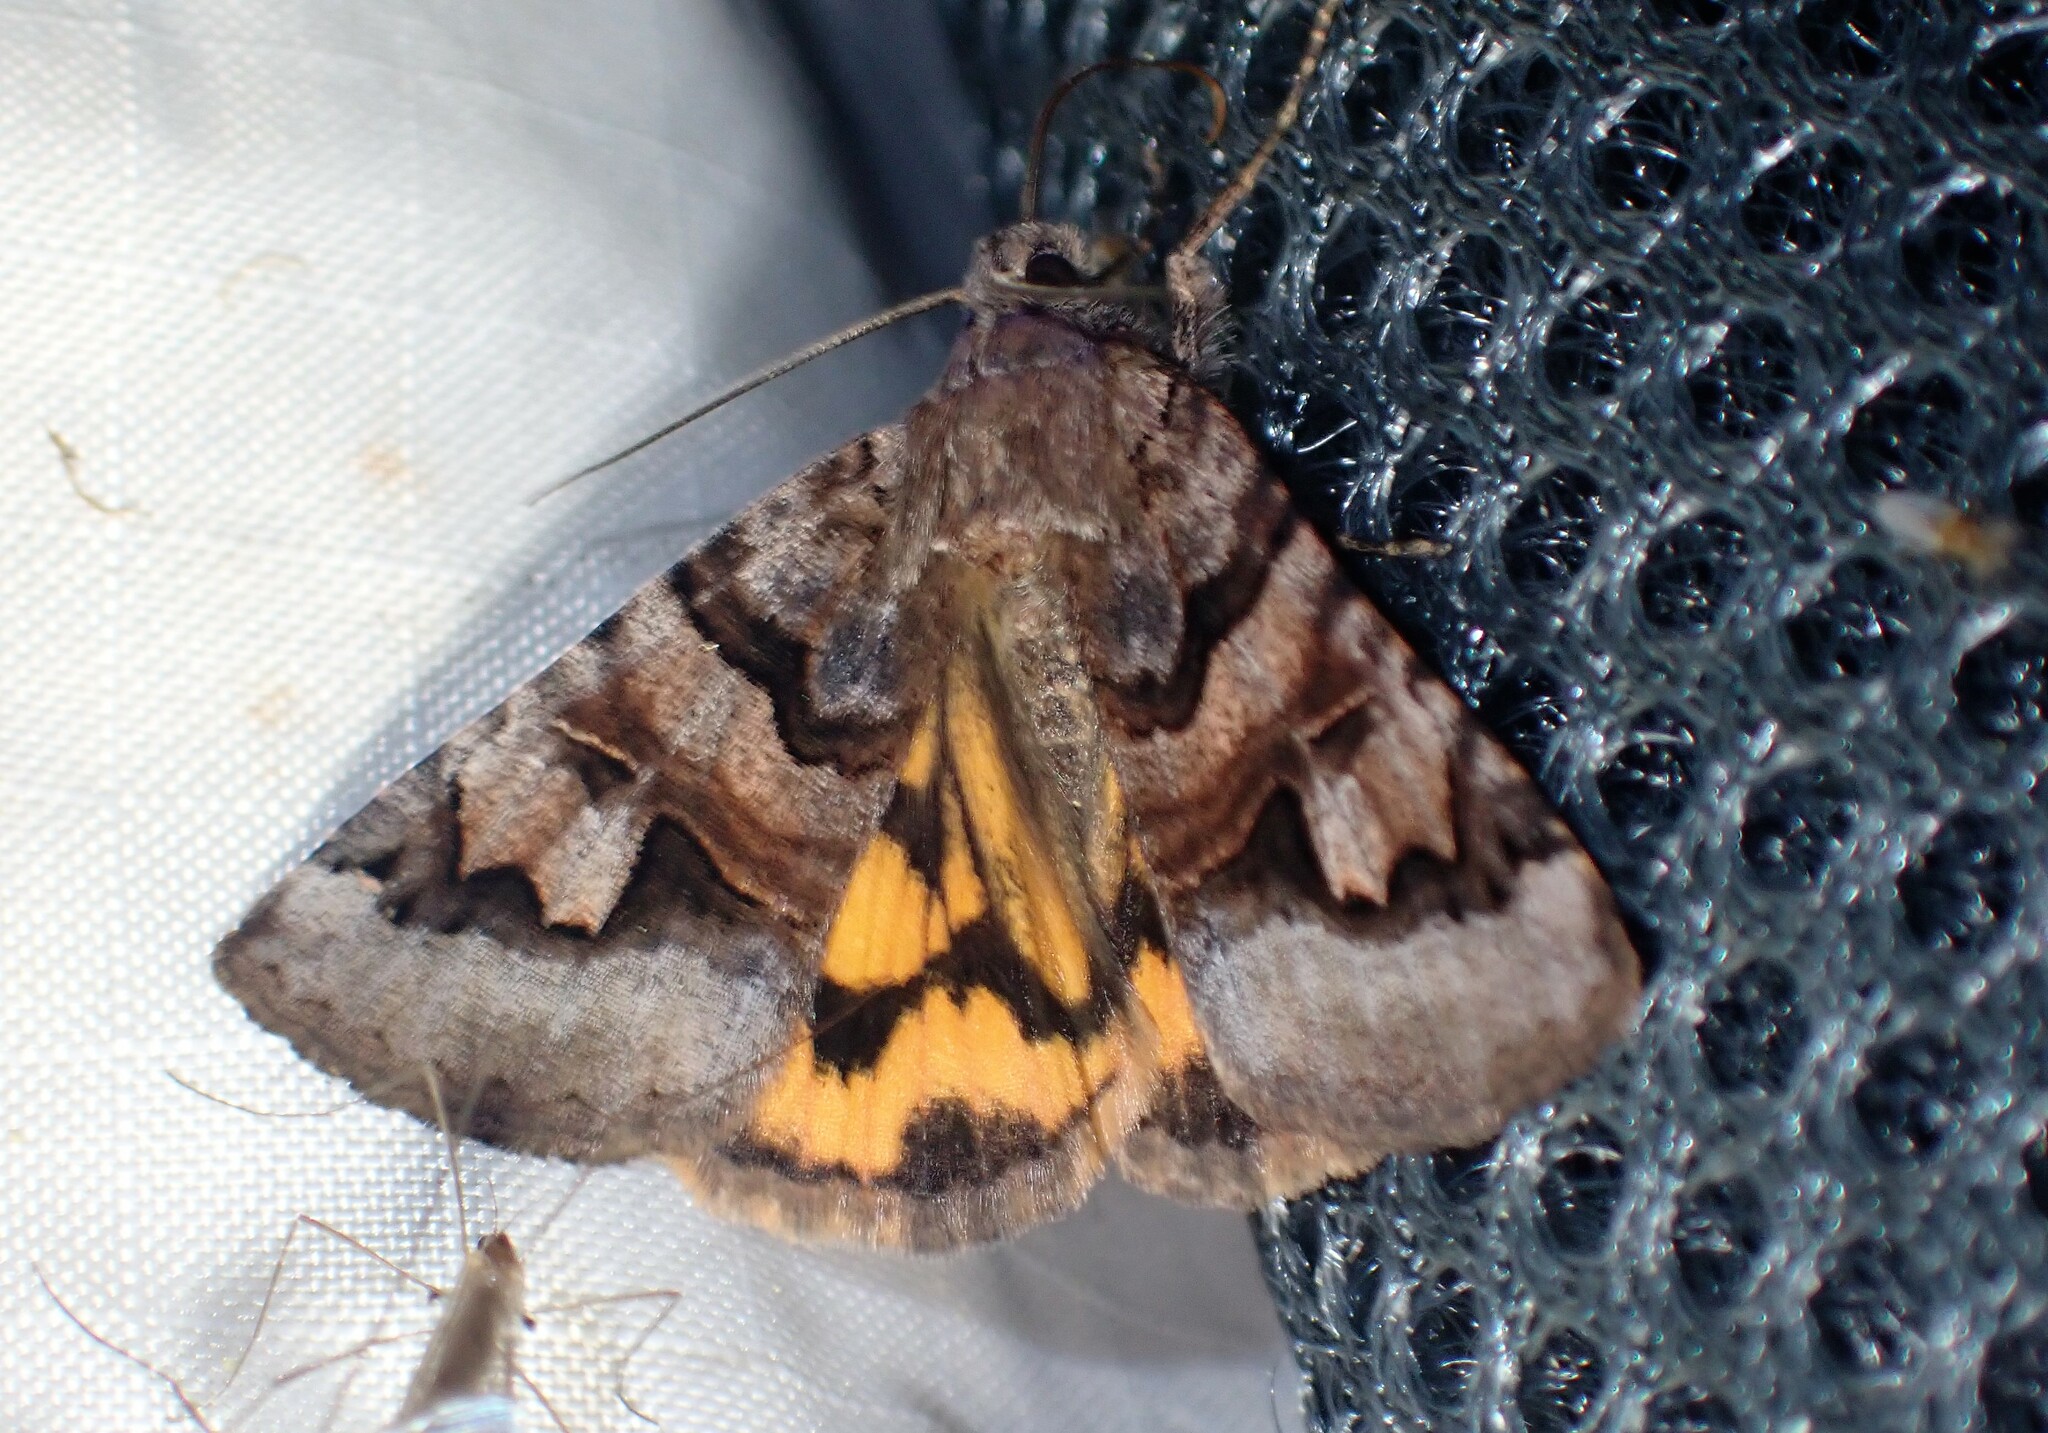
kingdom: Animalia
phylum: Arthropoda
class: Insecta
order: Lepidoptera
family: Erebidae
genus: Drasteria
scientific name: Drasteria adumbrata
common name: Shadowy arches
